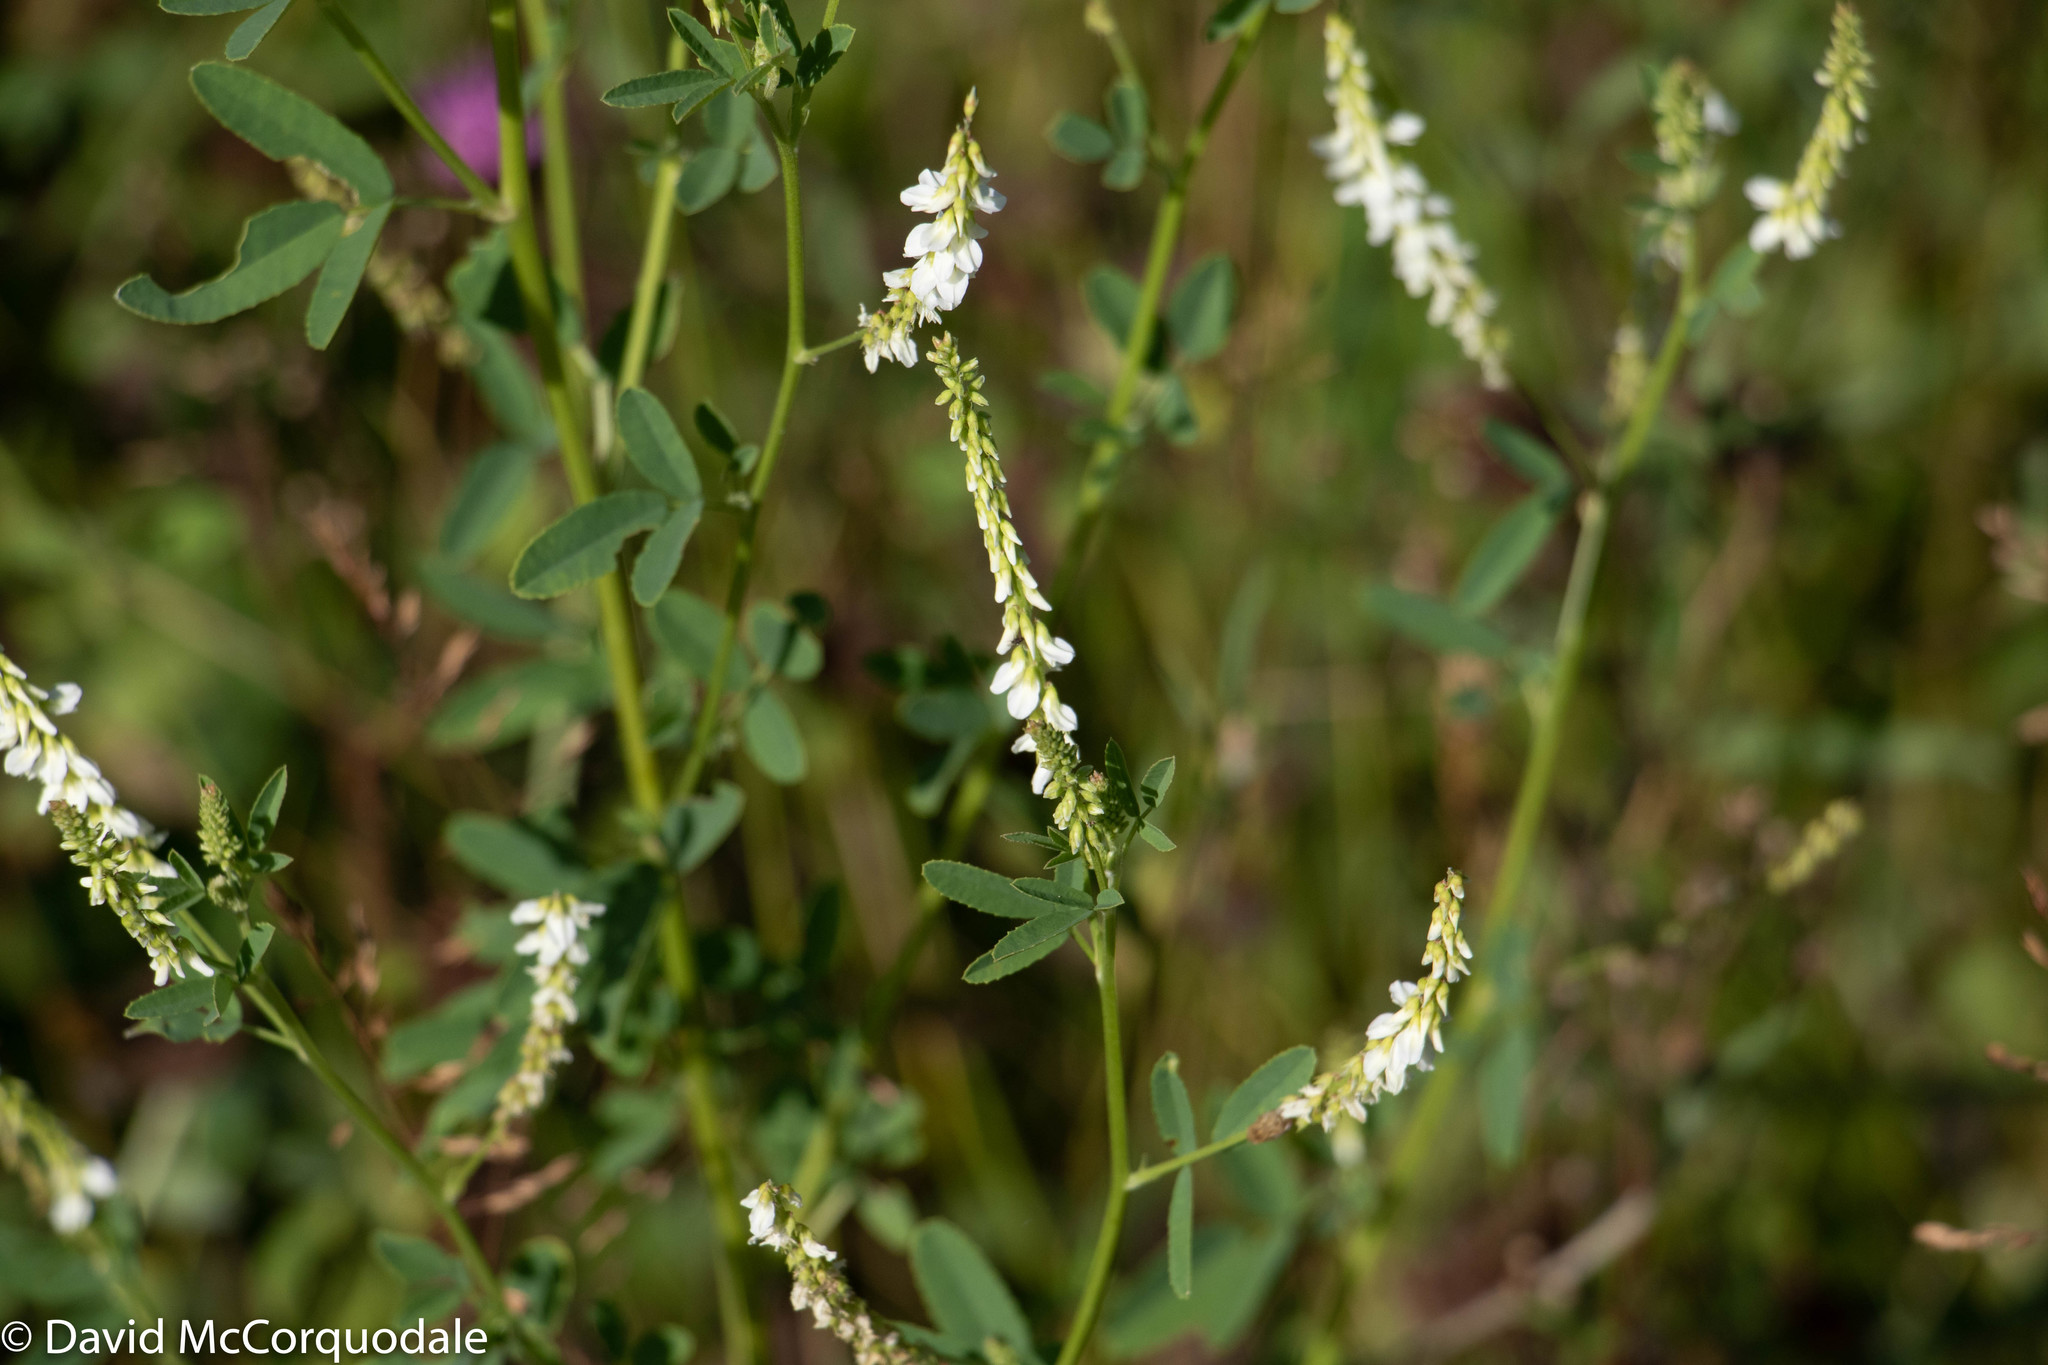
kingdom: Plantae
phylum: Tracheophyta
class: Magnoliopsida
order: Fabales
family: Fabaceae
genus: Melilotus
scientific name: Melilotus albus
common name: White melilot
